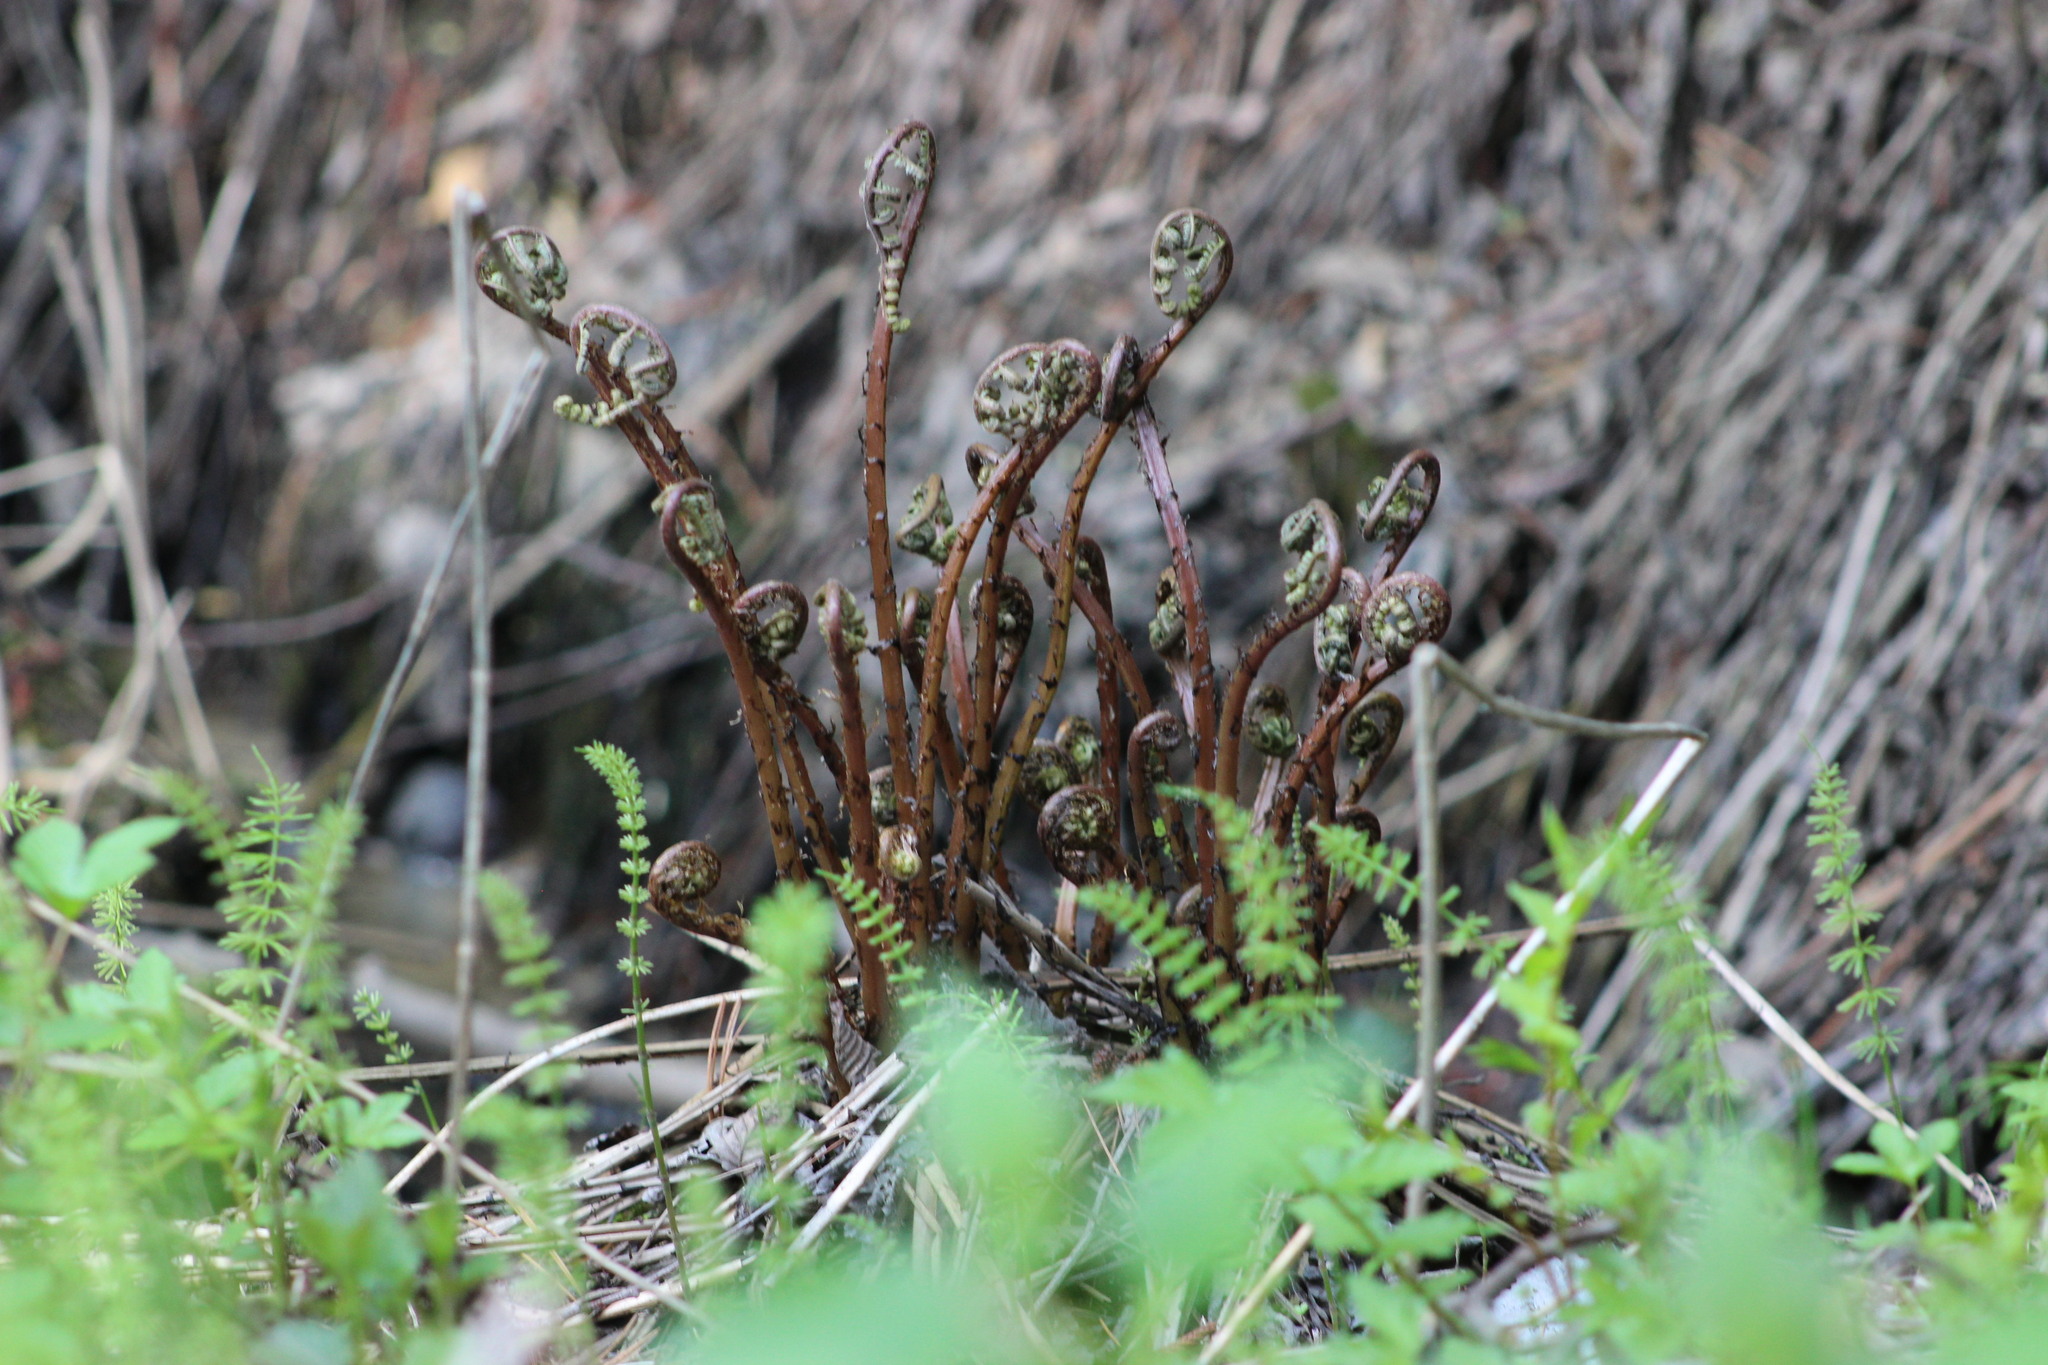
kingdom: Plantae
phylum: Tracheophyta
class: Polypodiopsida
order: Polypodiales
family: Athyriaceae
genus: Athyrium
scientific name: Athyrium filix-femina
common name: Lady fern
